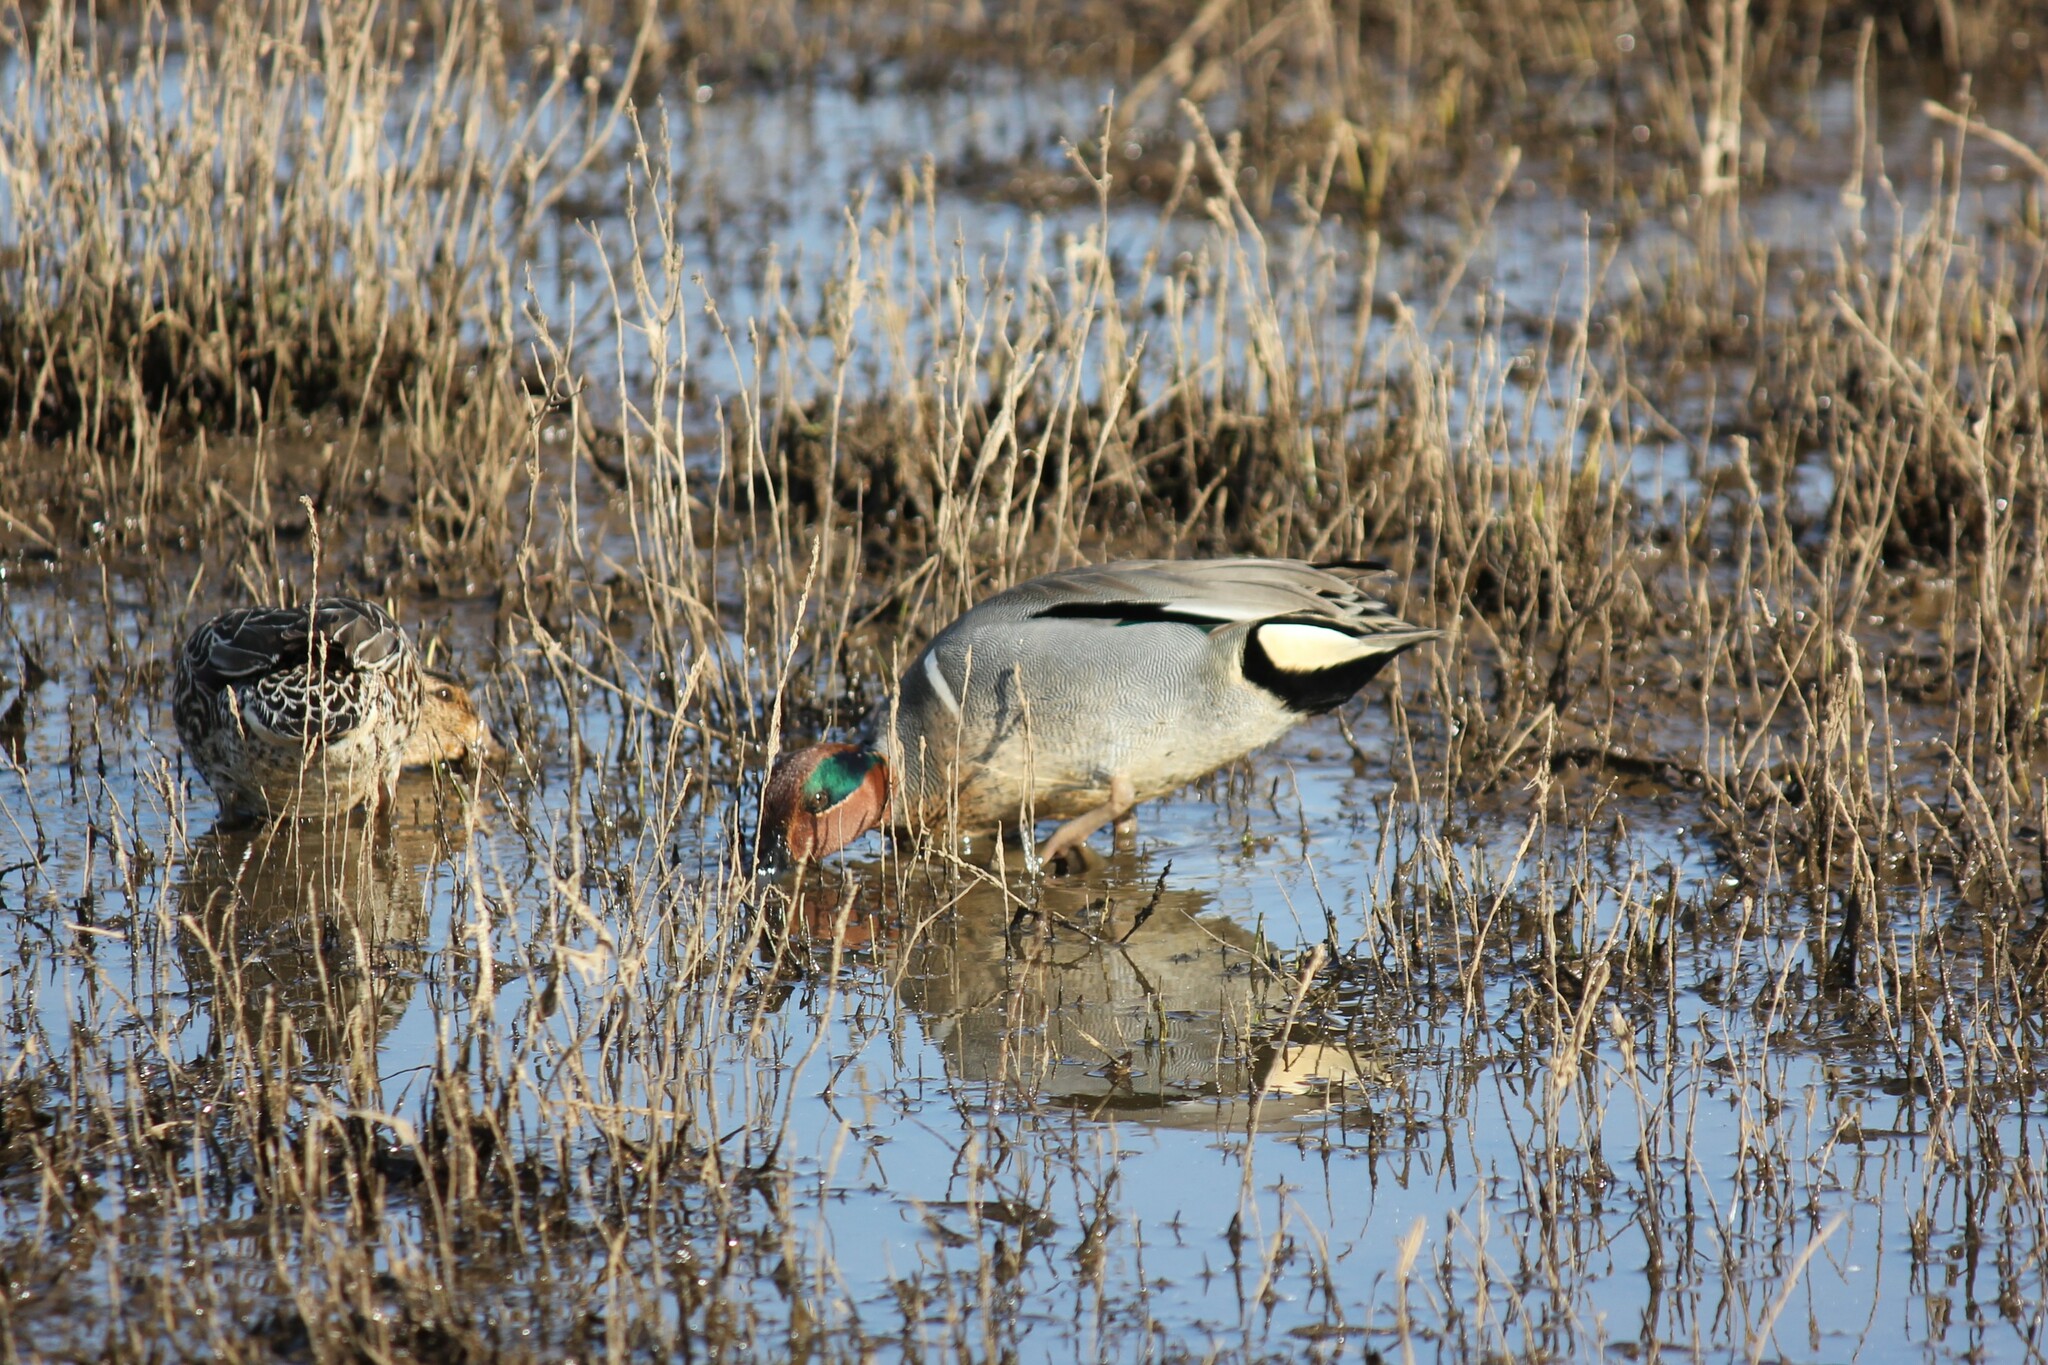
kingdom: Animalia
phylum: Chordata
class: Aves
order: Anseriformes
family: Anatidae
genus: Anas
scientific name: Anas crecca
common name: Eurasian teal
